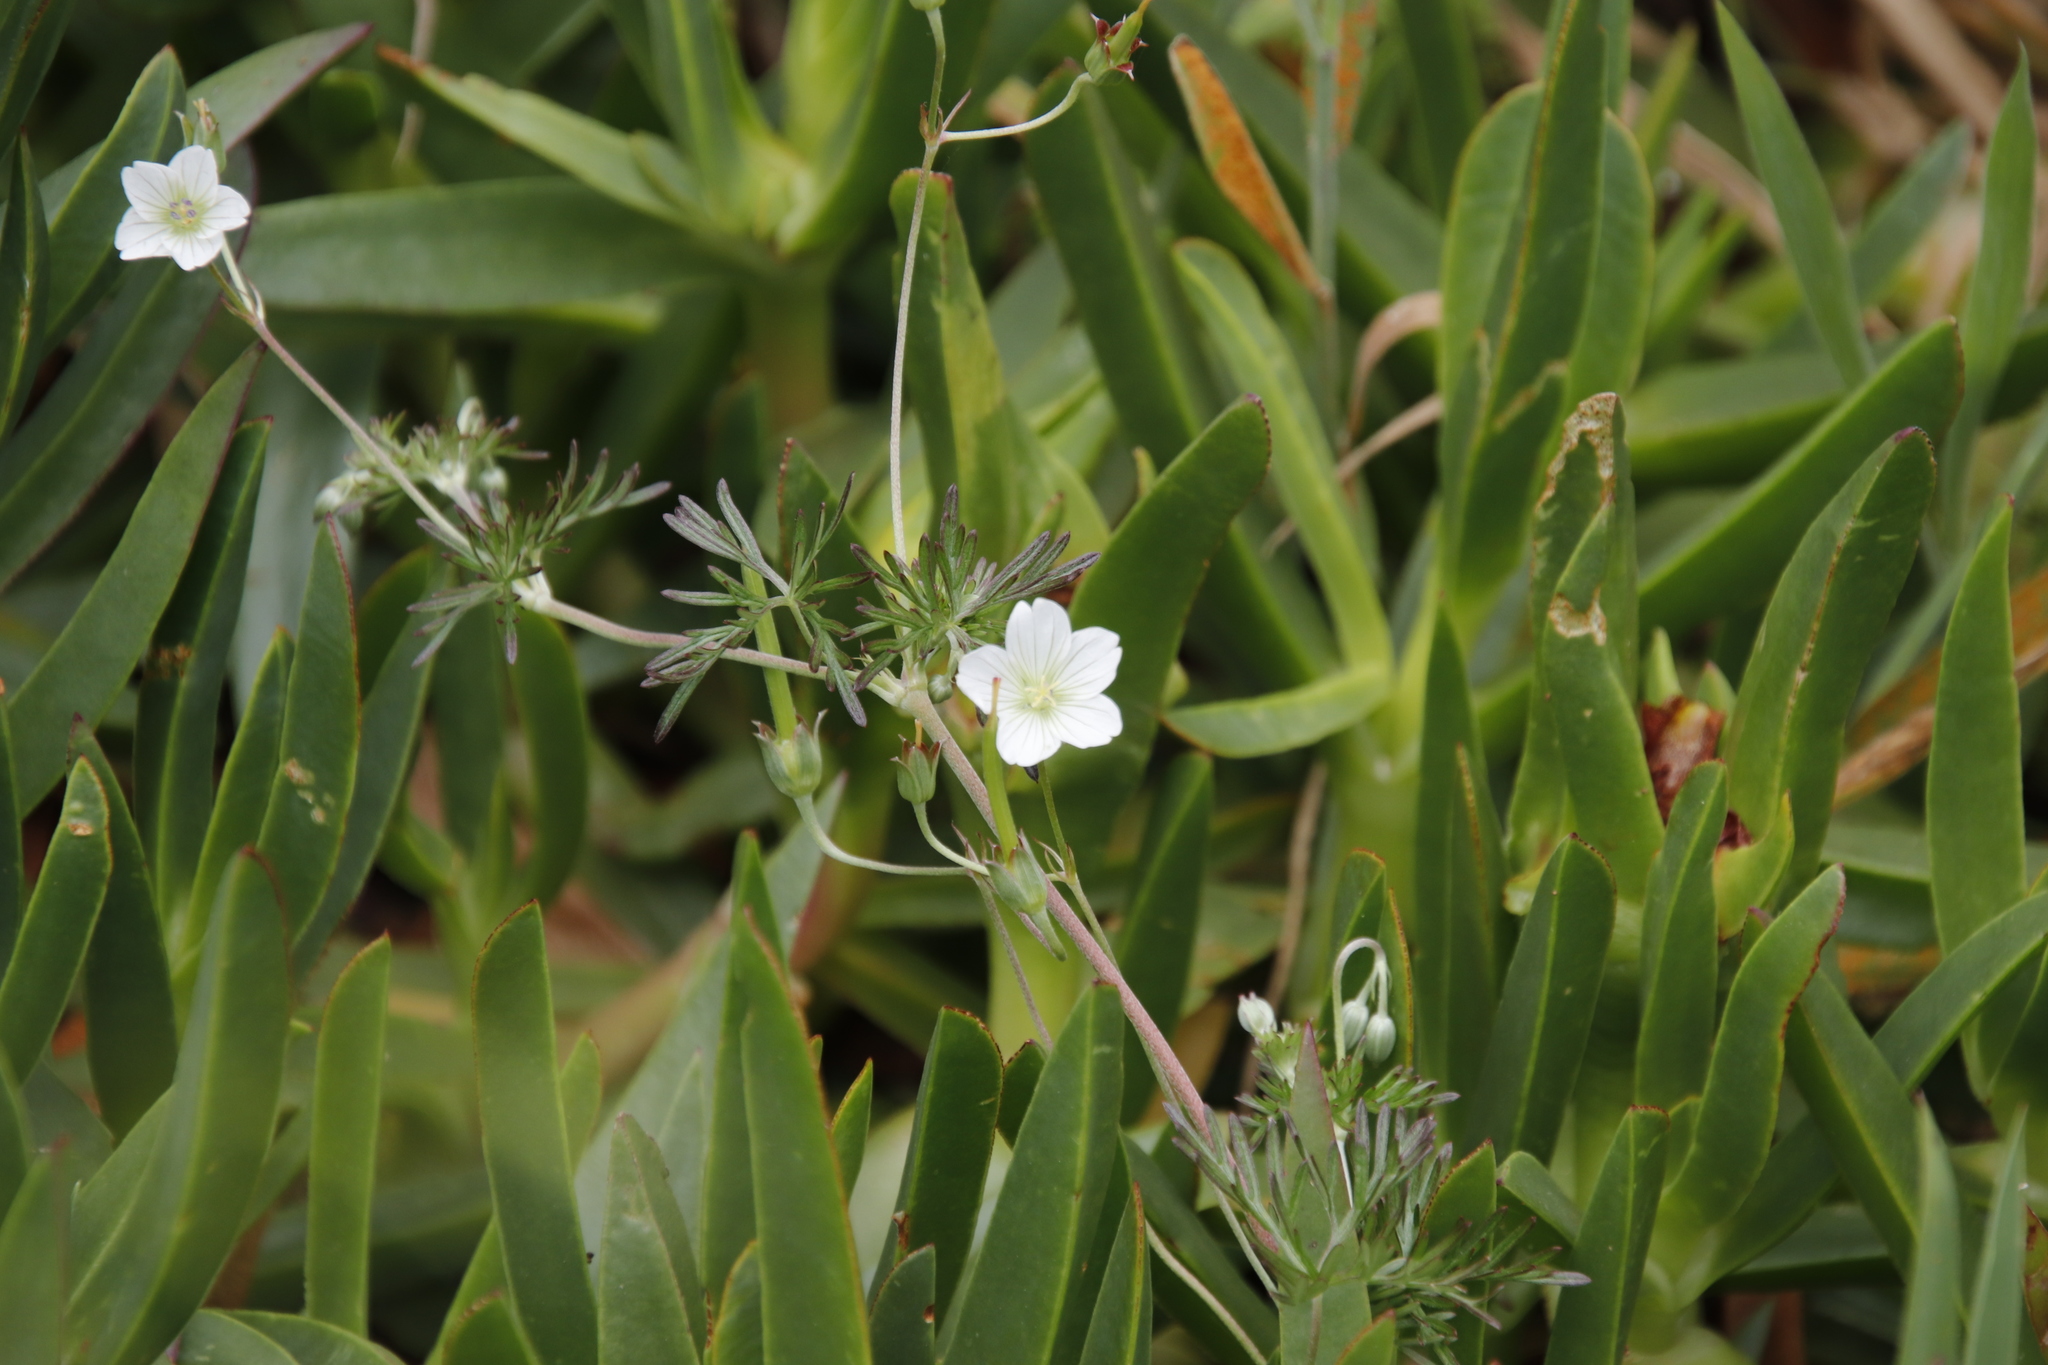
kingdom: Plantae
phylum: Tracheophyta
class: Magnoliopsida
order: Geraniales
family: Geraniaceae
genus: Geranium
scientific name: Geranium incanum
